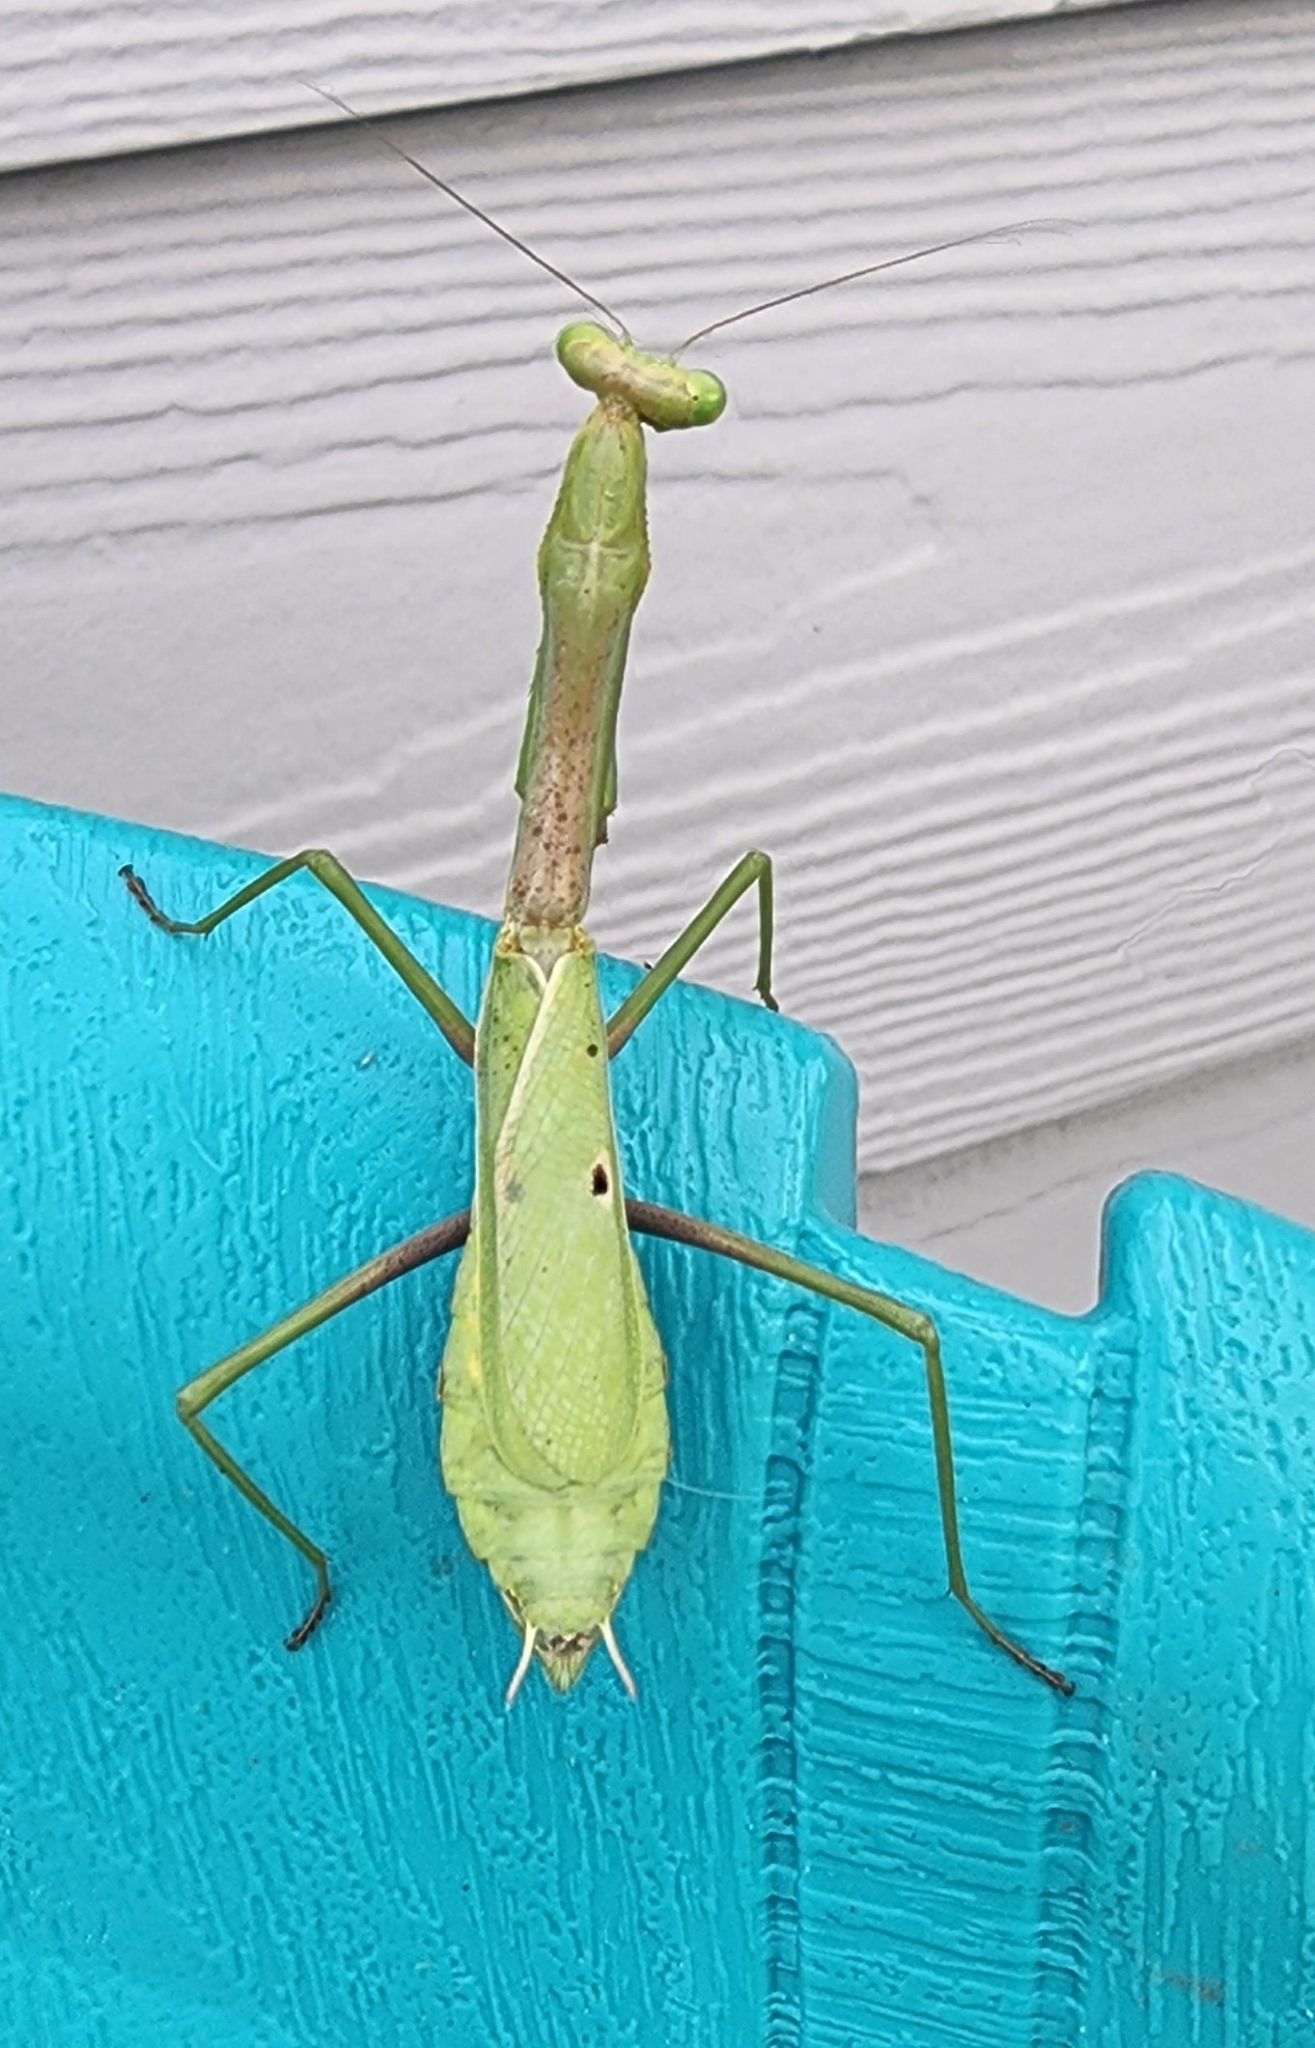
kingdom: Animalia
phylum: Arthropoda
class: Insecta
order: Mantodea
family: Mantidae
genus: Stagmomantis
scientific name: Stagmomantis carolina
